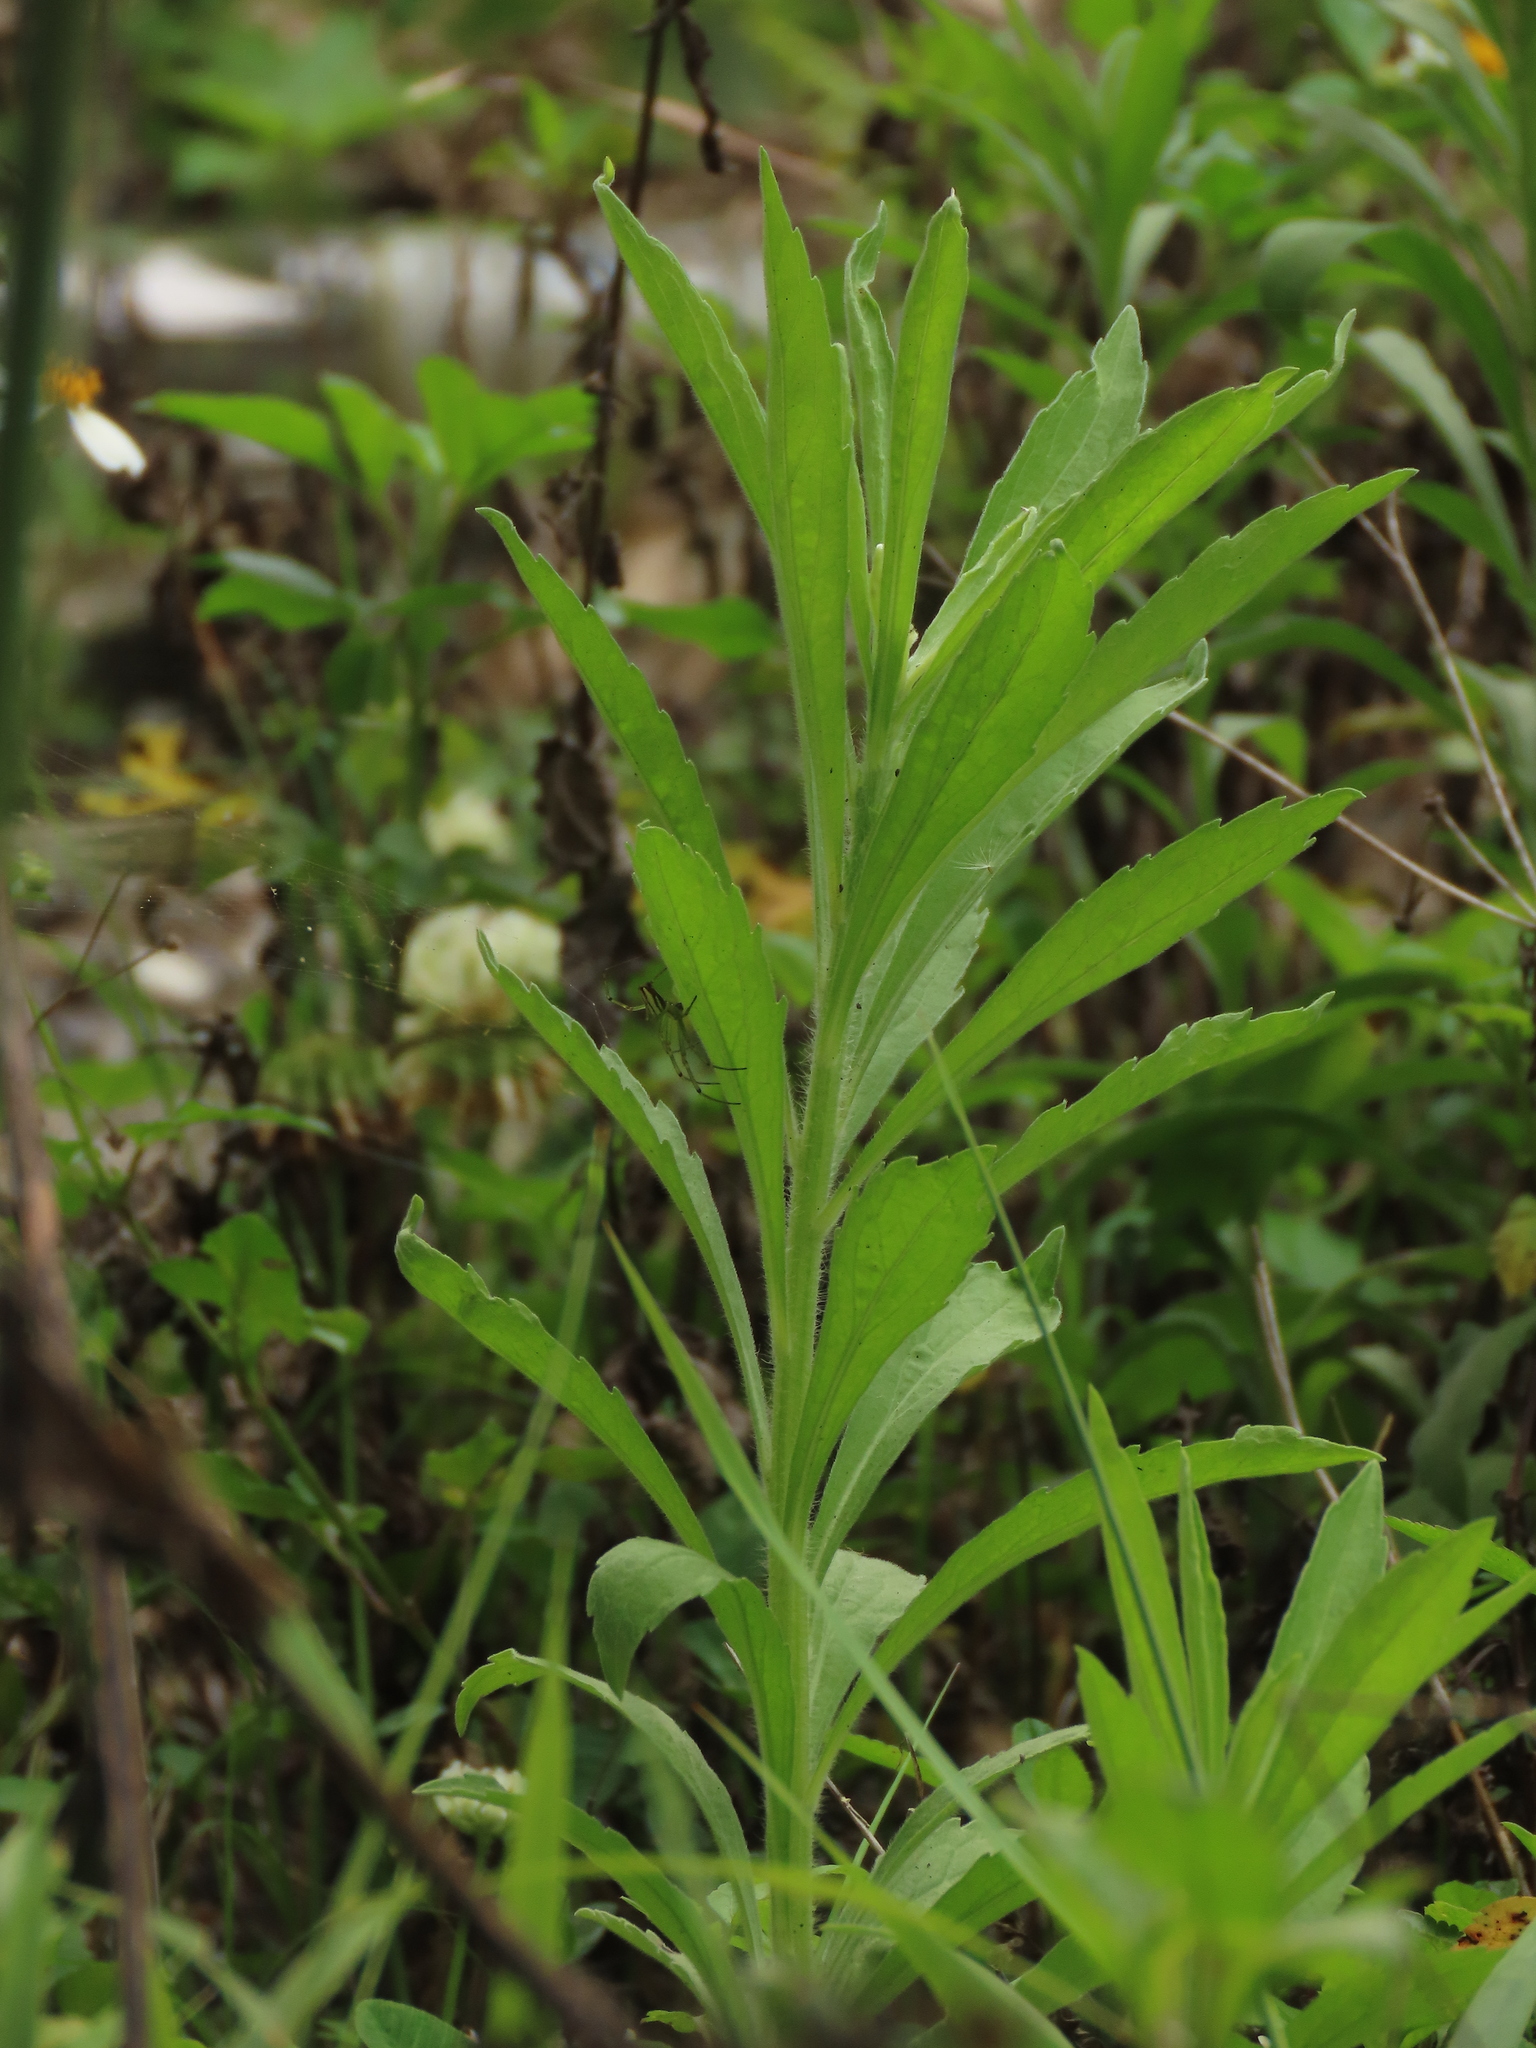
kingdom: Plantae
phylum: Tracheophyta
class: Magnoliopsida
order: Asterales
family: Asteraceae
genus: Erigeron
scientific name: Erigeron sumatrensis
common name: Daisy
